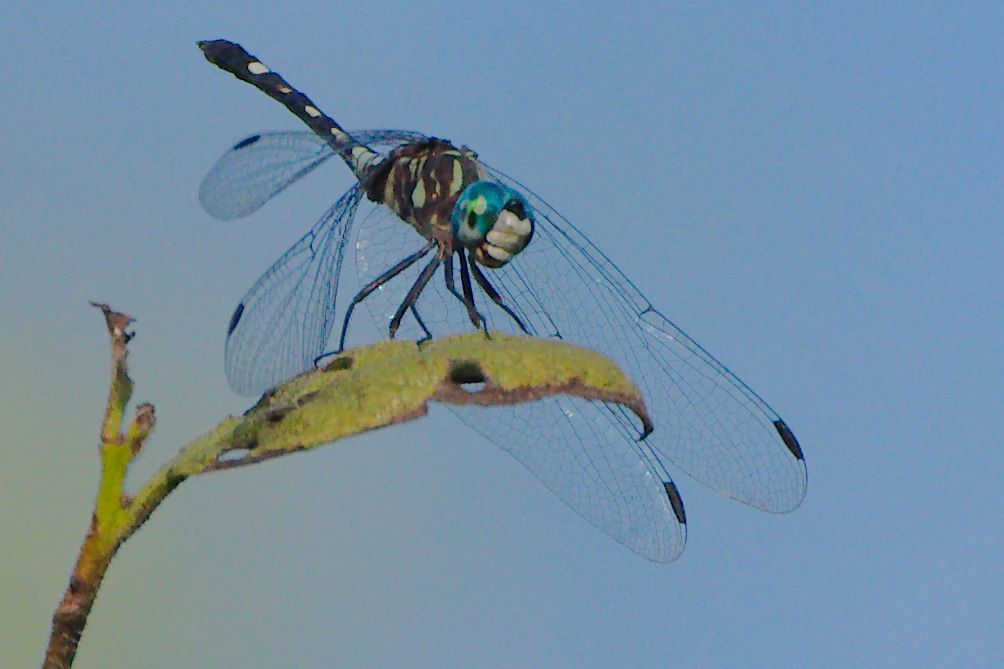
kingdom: Animalia
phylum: Arthropoda
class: Insecta
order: Odonata
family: Libellulidae
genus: Micrathyria
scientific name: Micrathyria hagenii
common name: Thornbush dasher
